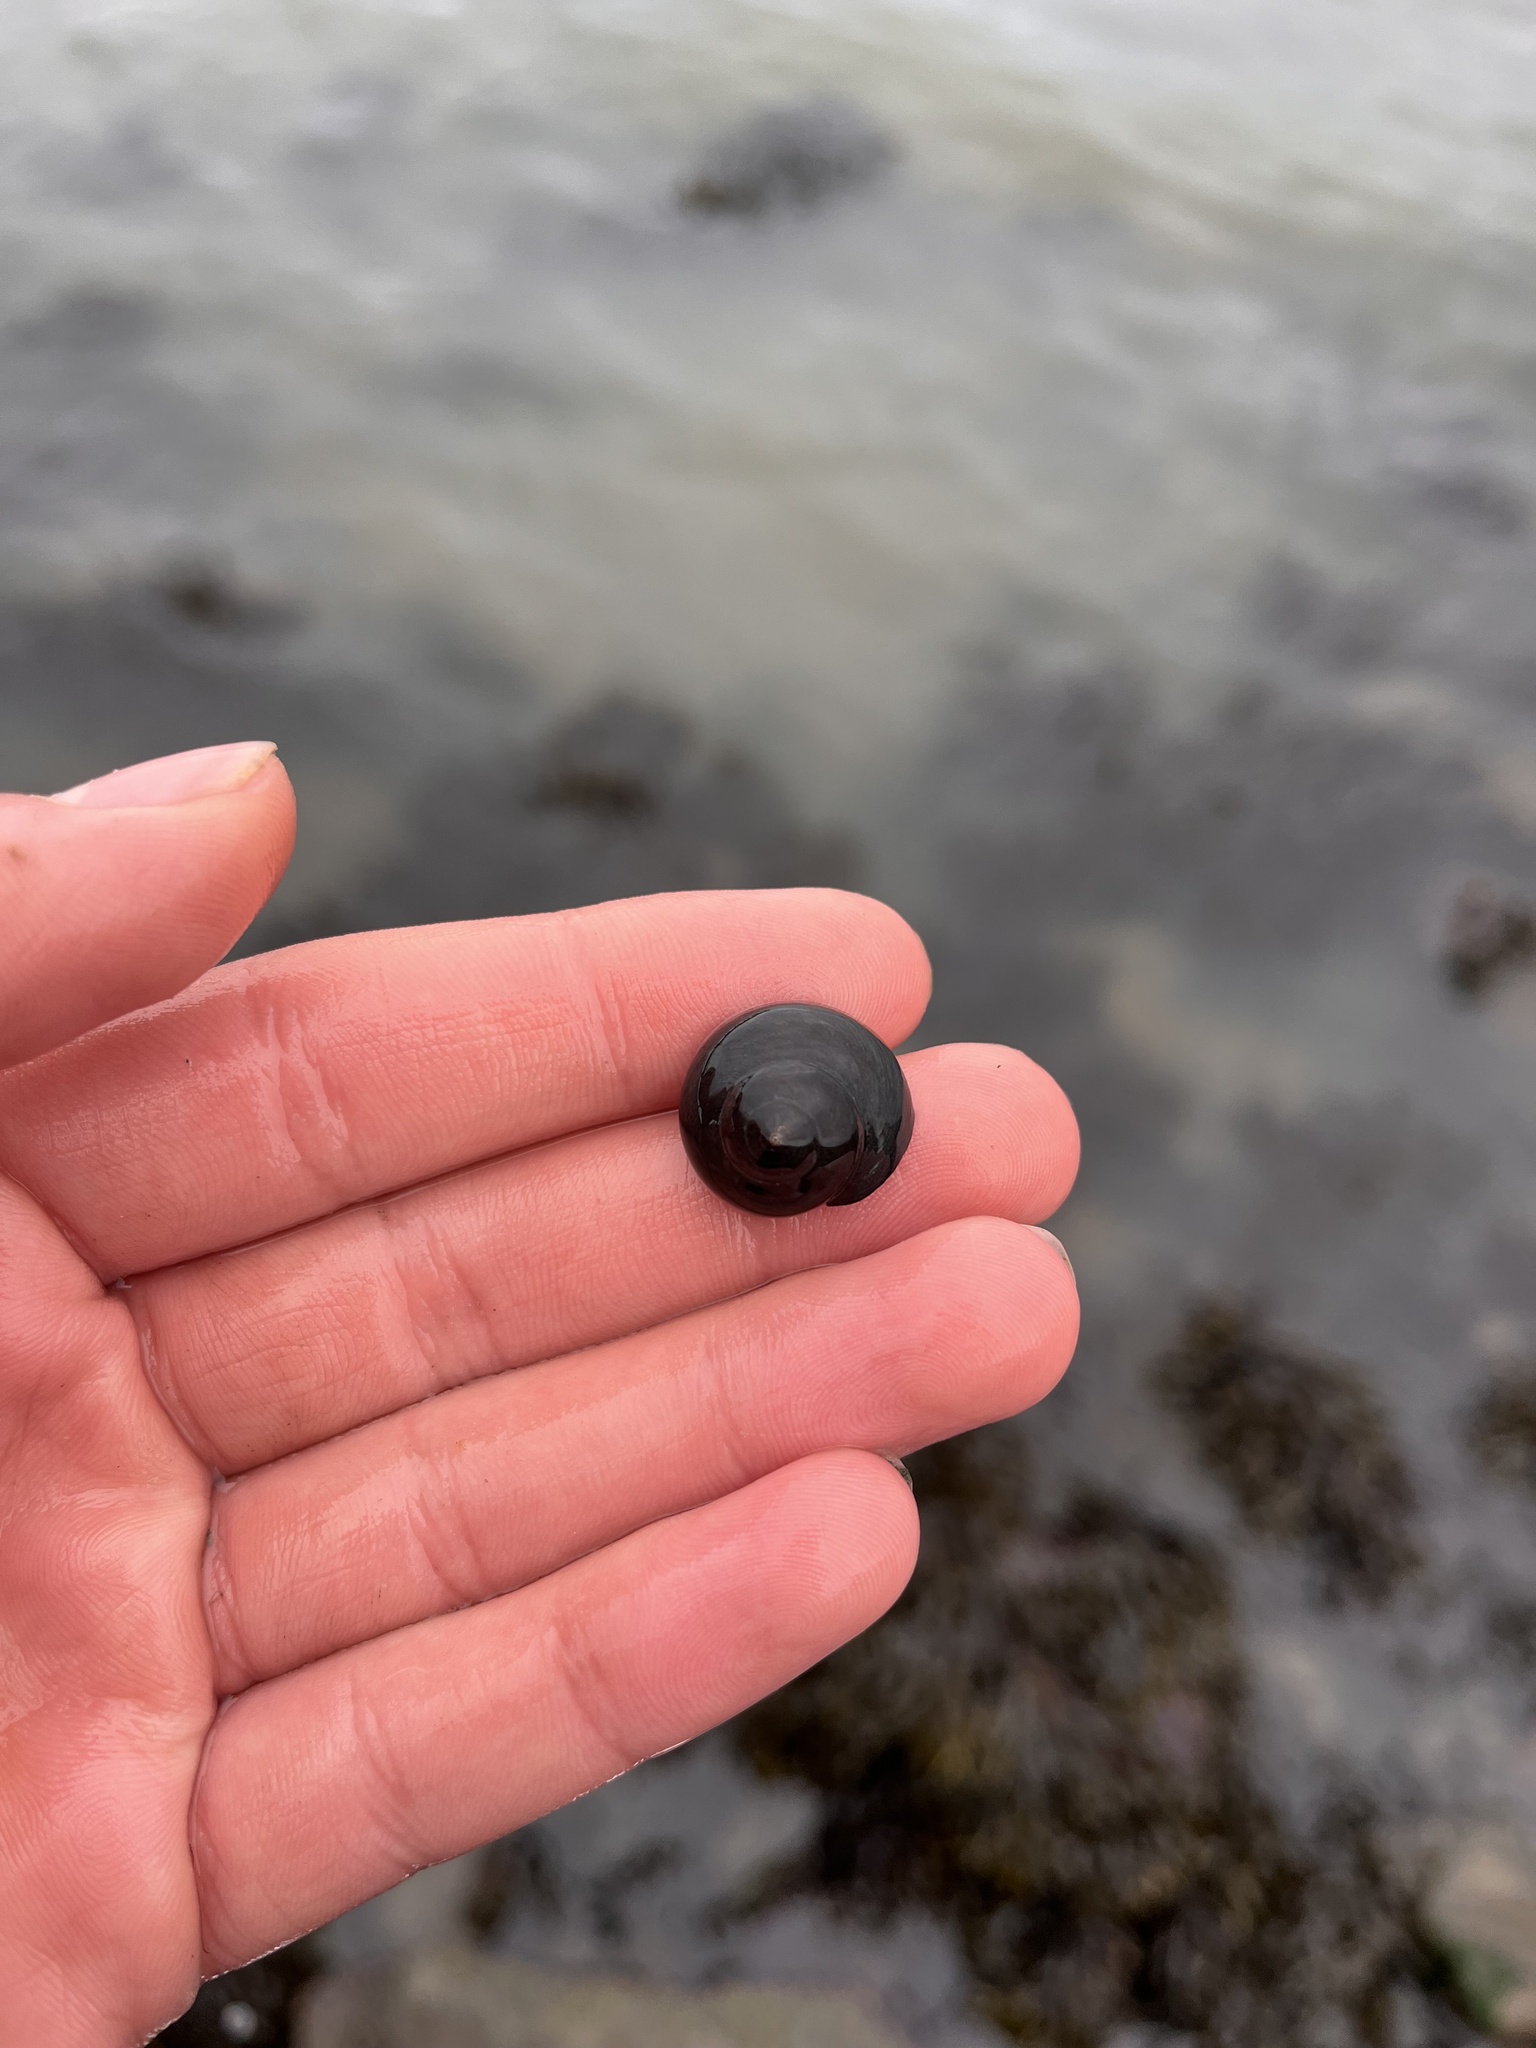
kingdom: Animalia
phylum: Mollusca
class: Gastropoda
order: Trochida
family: Tegulidae
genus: Tegula
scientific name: Tegula funebralis
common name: Black tegula
